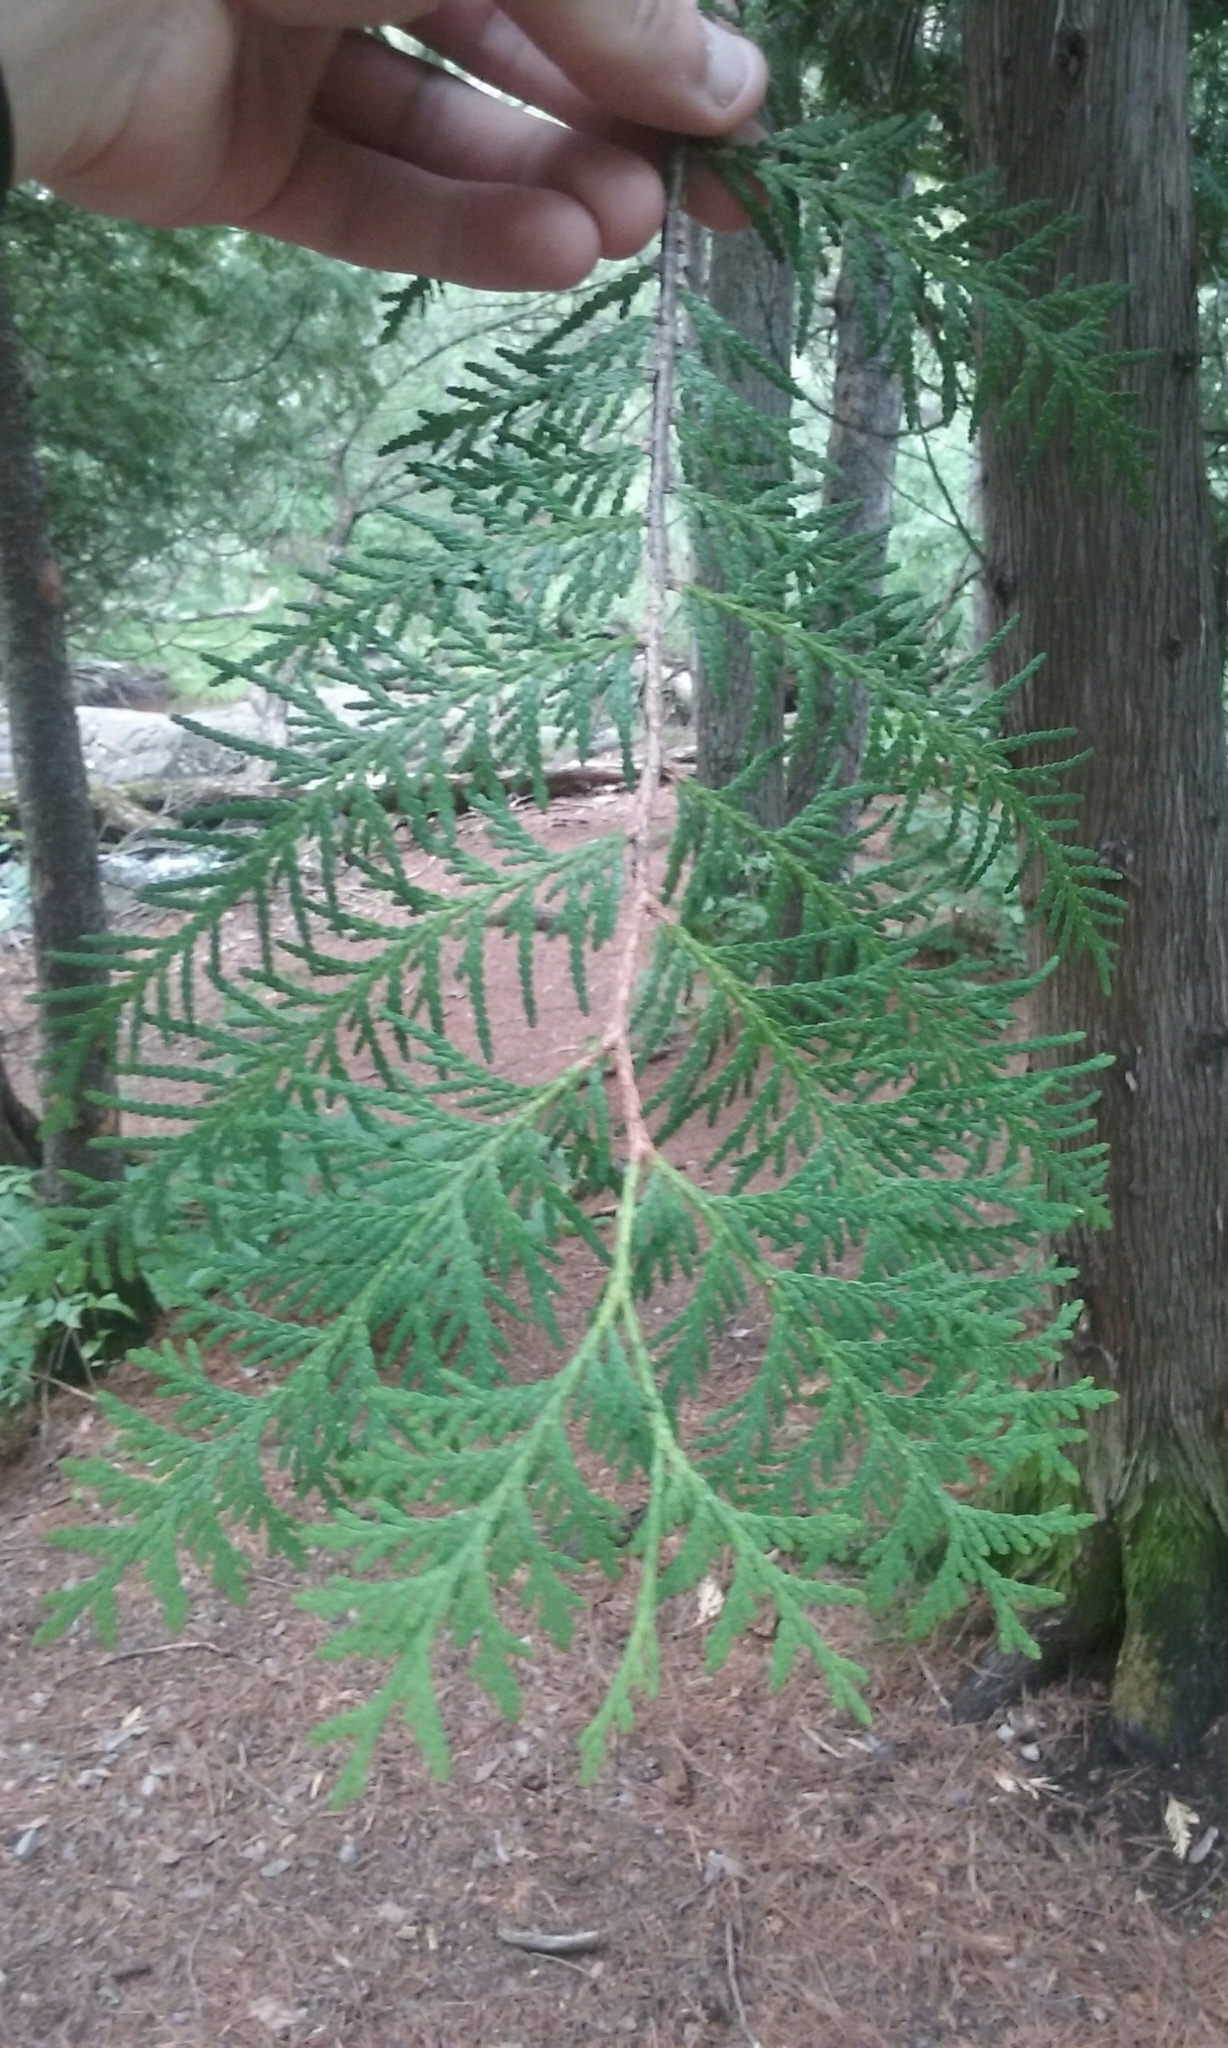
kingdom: Plantae
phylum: Tracheophyta
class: Pinopsida
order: Pinales
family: Cupressaceae
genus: Thuja
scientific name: Thuja occidentalis
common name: Northern white-cedar
